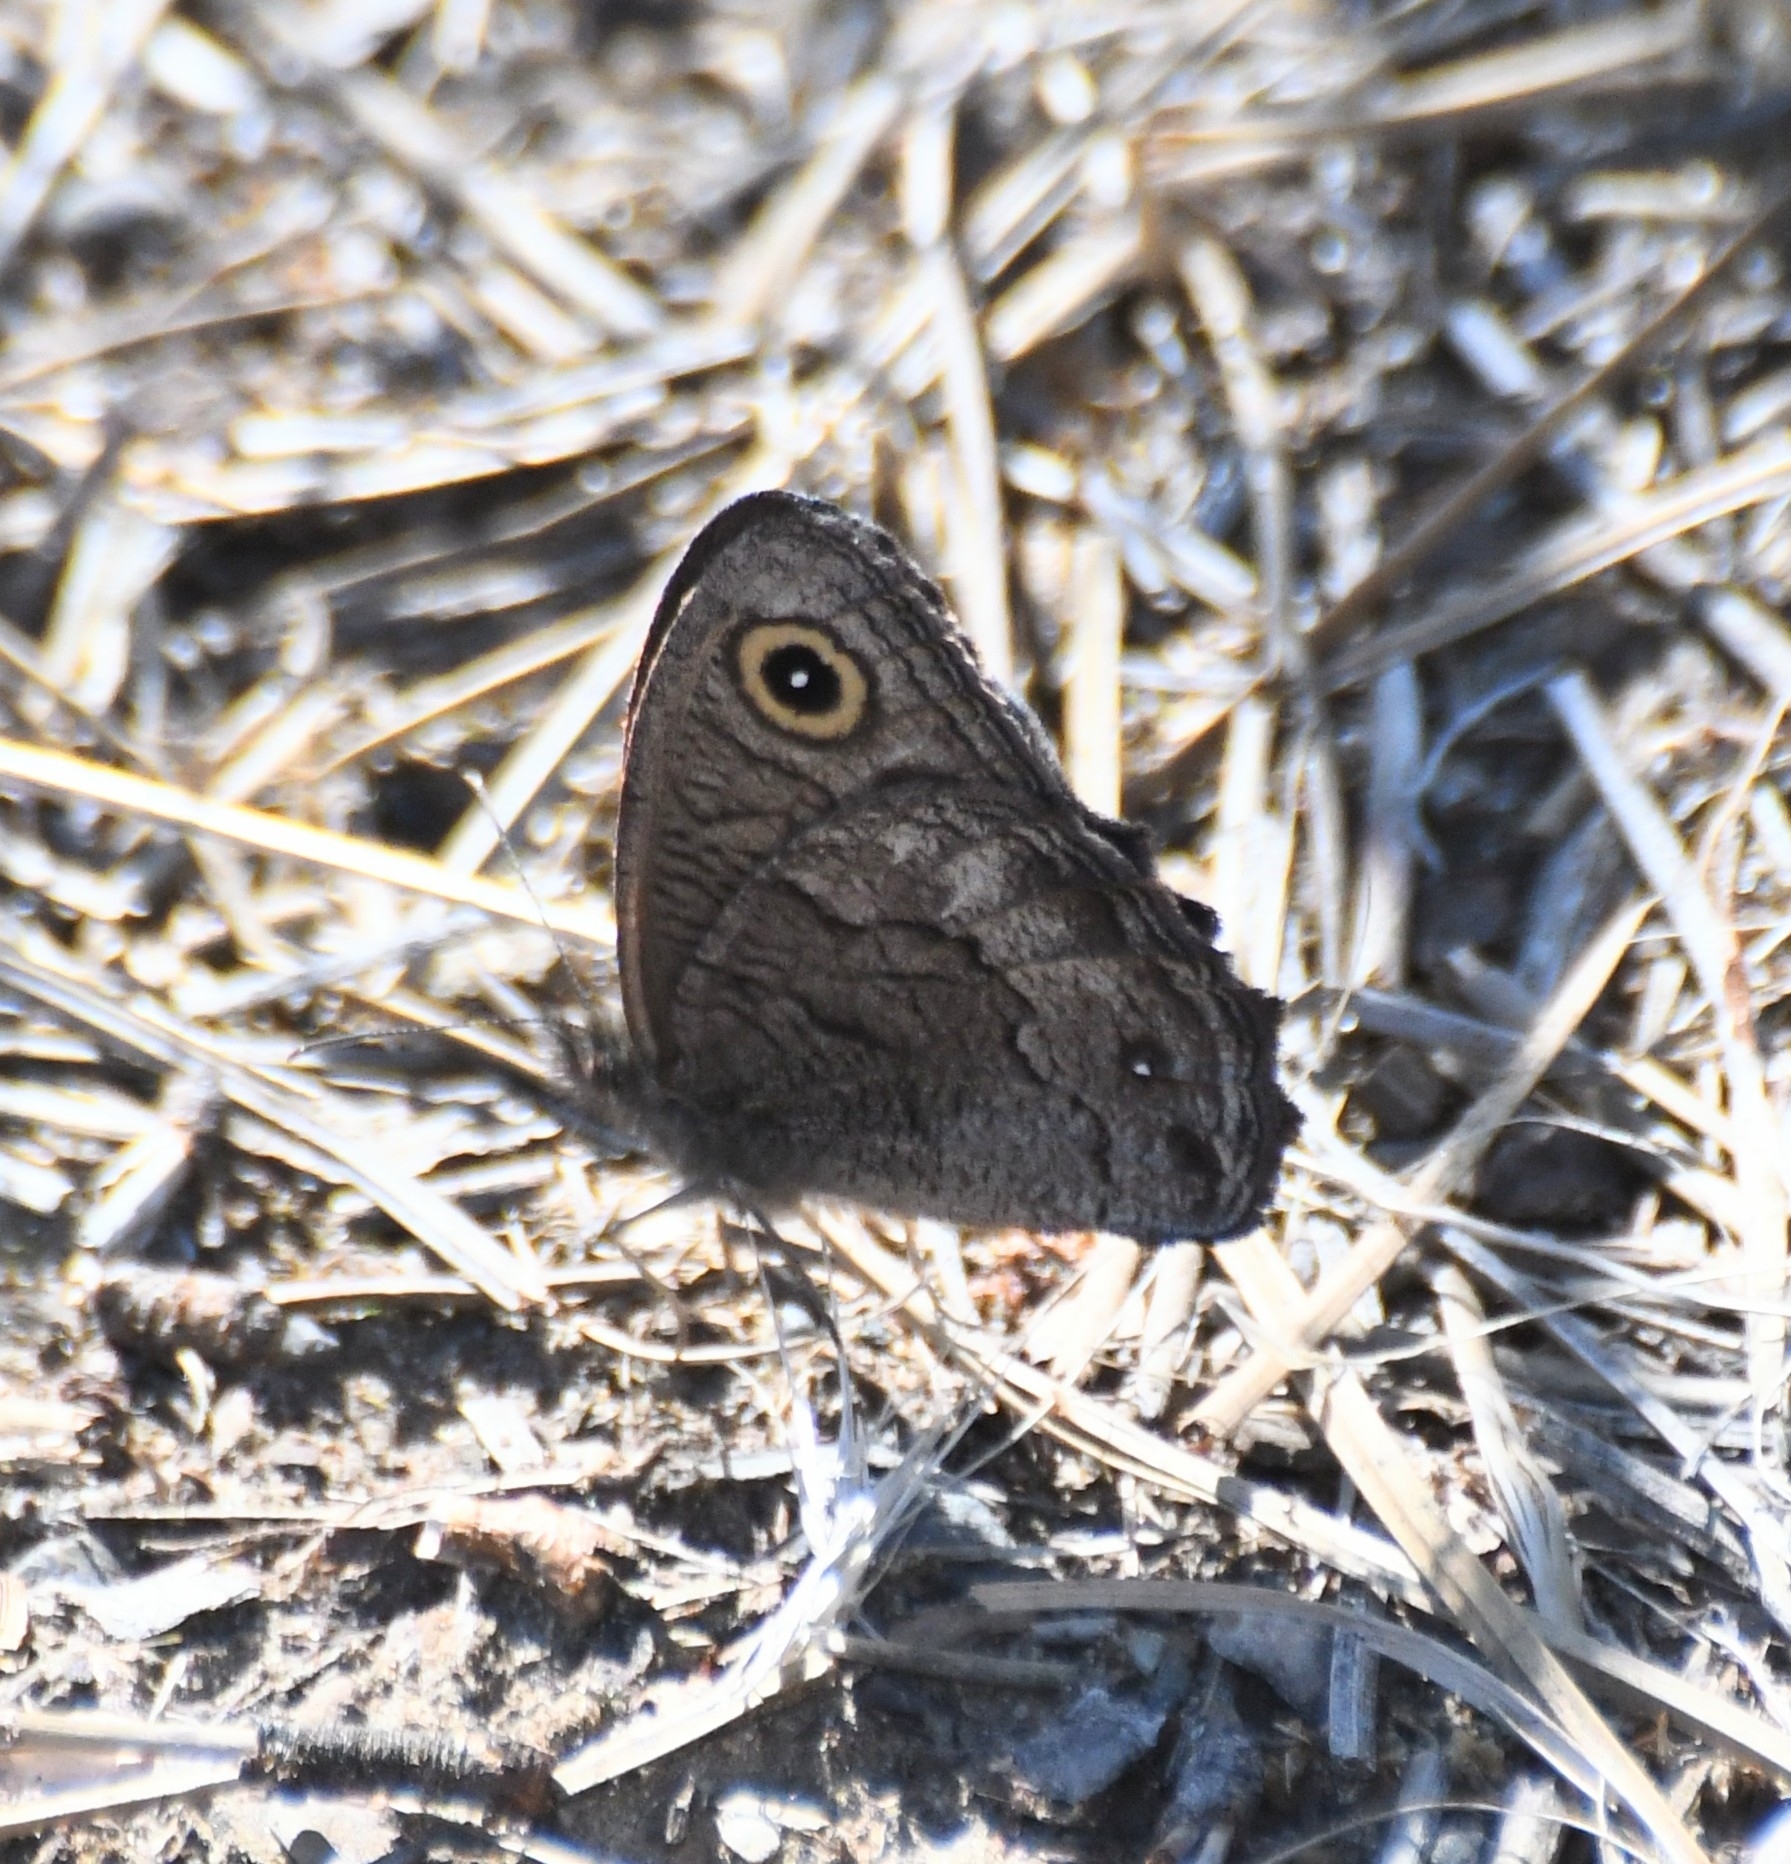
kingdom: Animalia
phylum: Arthropoda
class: Insecta
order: Lepidoptera
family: Nymphalidae
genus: Cercyonis
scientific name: Cercyonis sthenele
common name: Great basin wood-nymph
